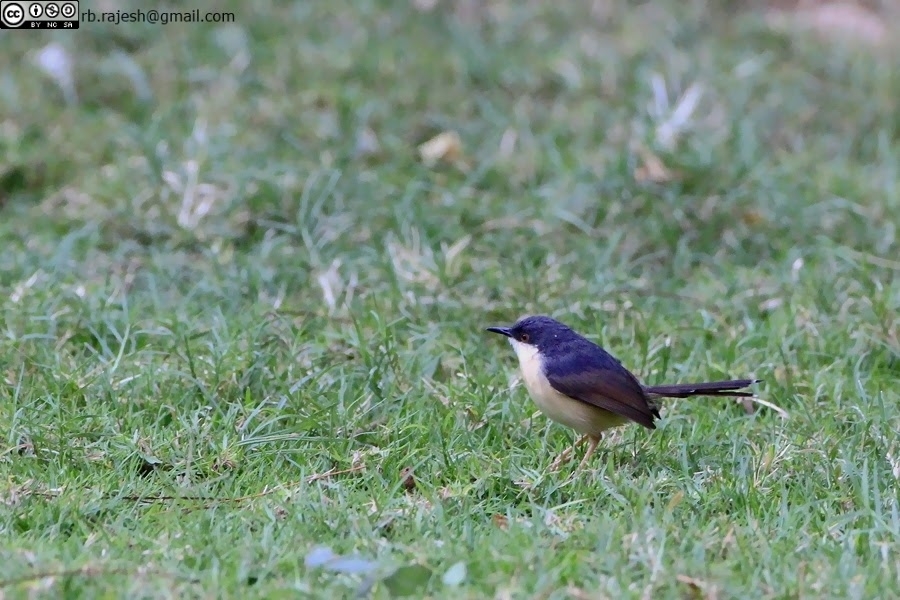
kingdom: Animalia
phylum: Chordata
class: Aves
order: Passeriformes
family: Cisticolidae
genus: Prinia
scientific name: Prinia socialis
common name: Ashy prinia
